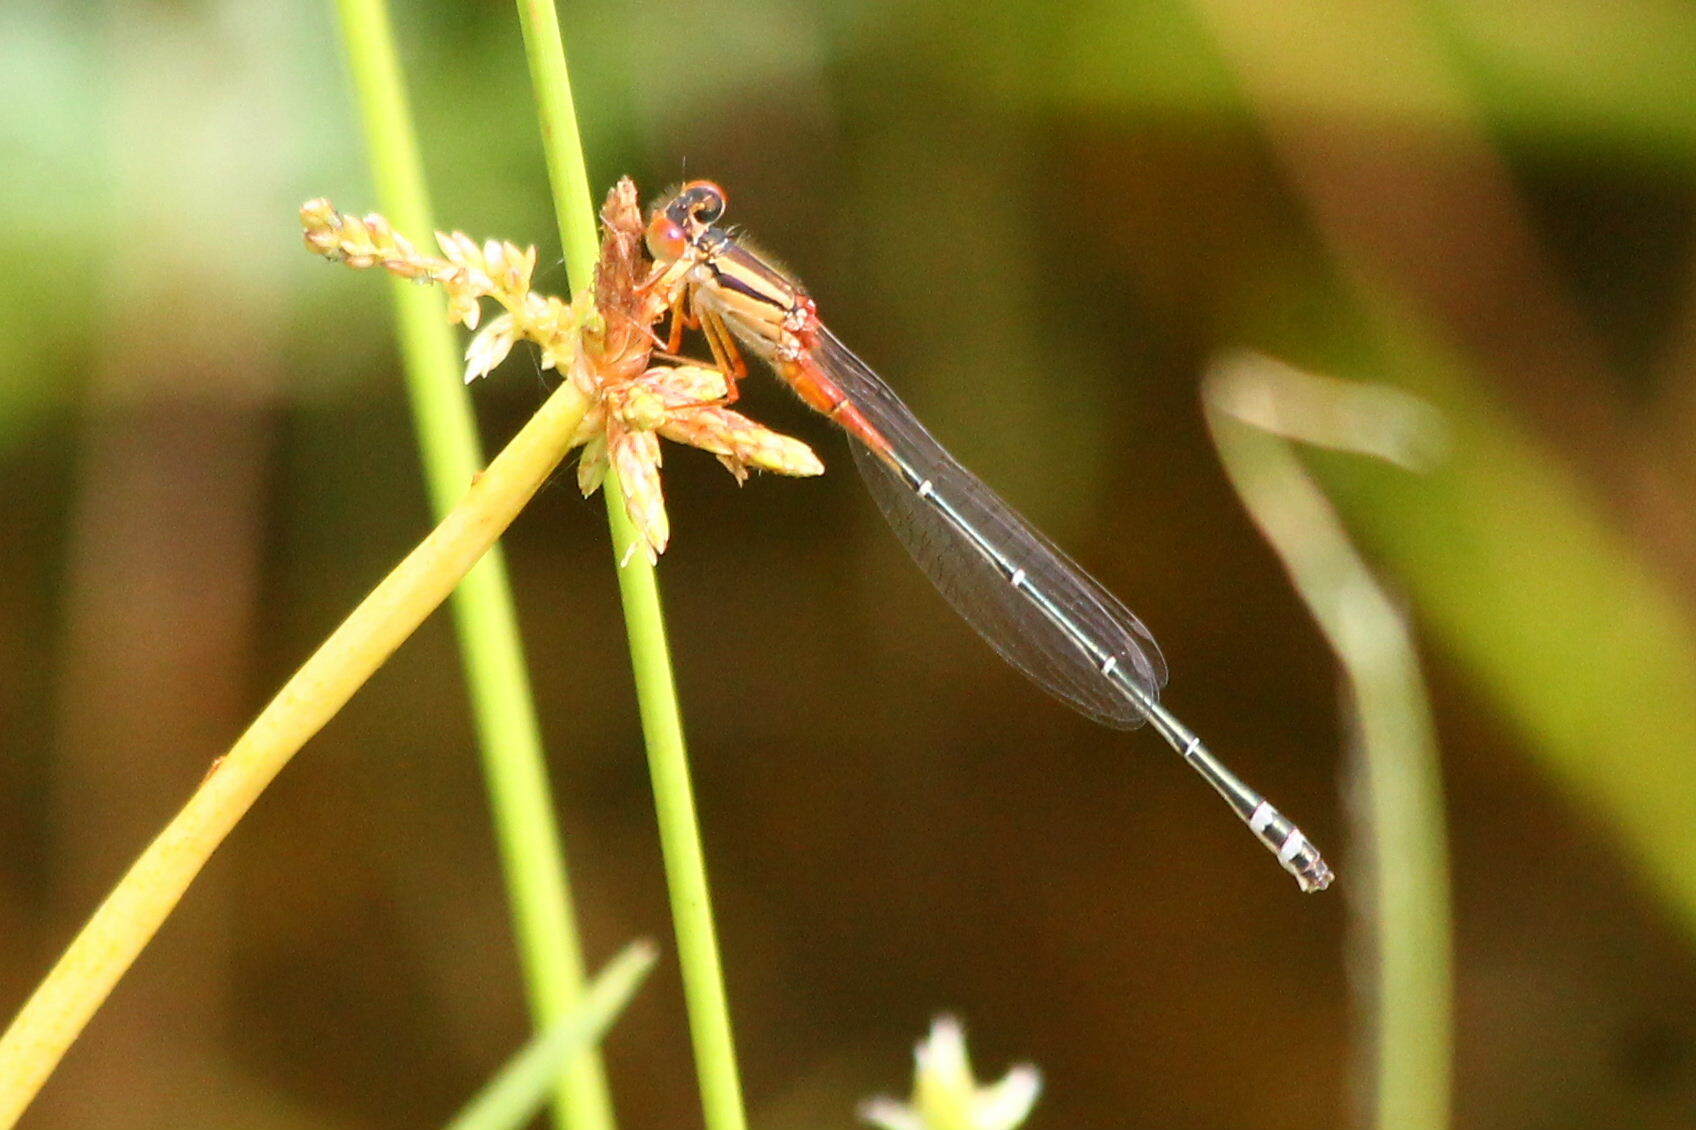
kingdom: Animalia
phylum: Arthropoda
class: Insecta
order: Odonata
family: Coenagrionidae
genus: Xanthagrion
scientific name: Xanthagrion erythroneurum
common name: Red and blue damsel
